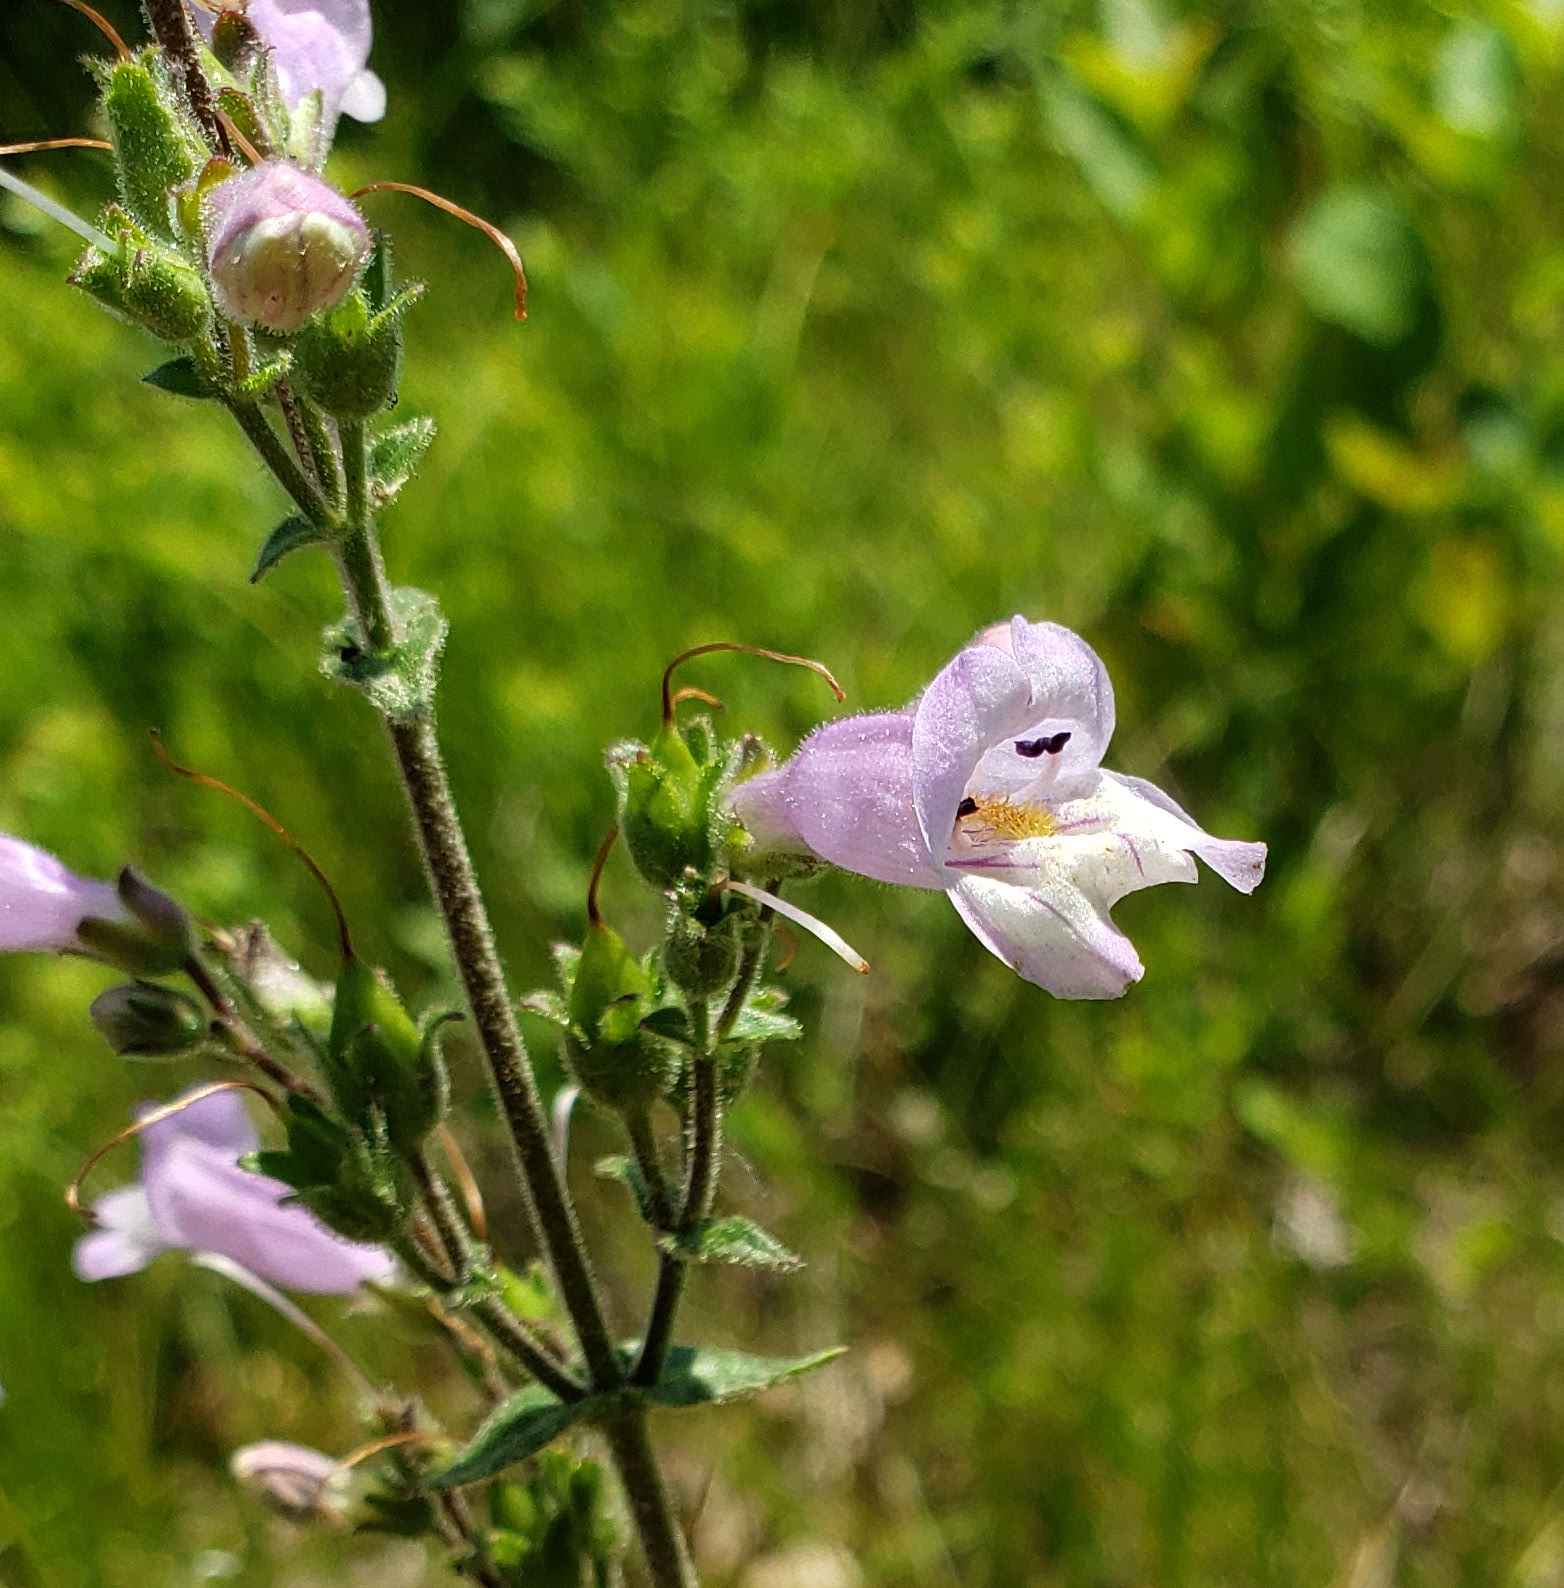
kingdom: Plantae
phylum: Tracheophyta
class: Magnoliopsida
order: Lamiales
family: Plantaginaceae
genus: Penstemon
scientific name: Penstemon gracilis
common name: Slender beardtongue
